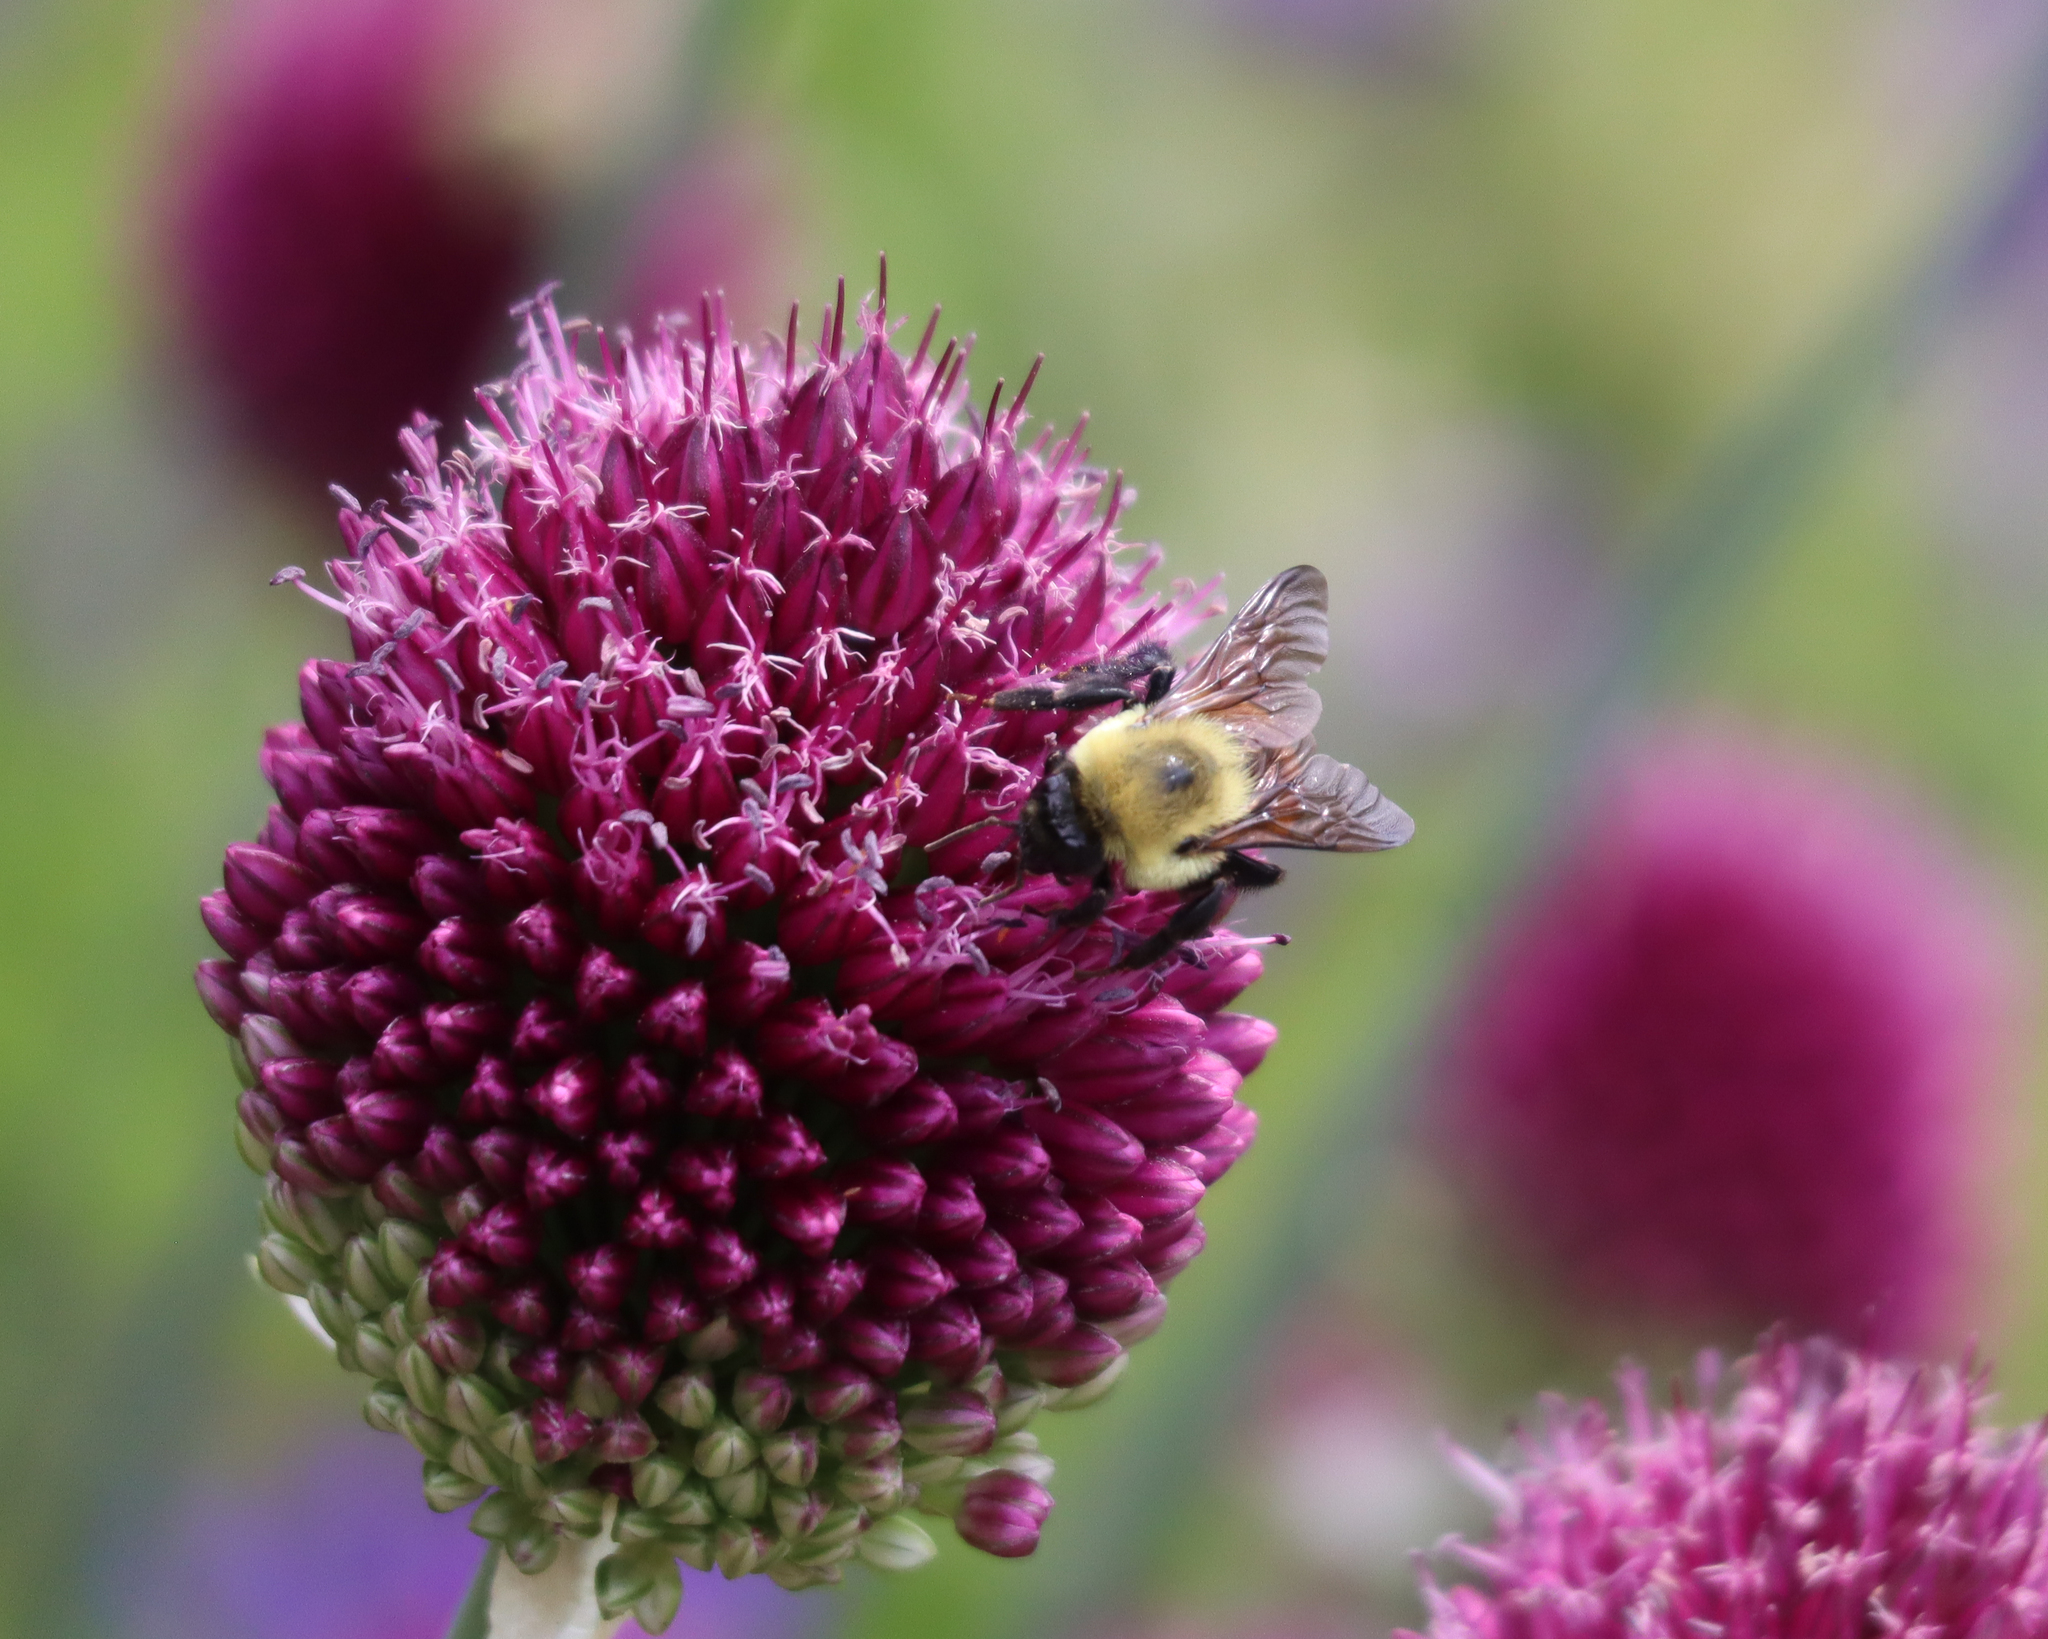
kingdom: Animalia
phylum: Arthropoda
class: Insecta
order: Hymenoptera
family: Apidae
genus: Bombus
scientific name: Bombus griseocollis
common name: Brown-belted bumble bee
